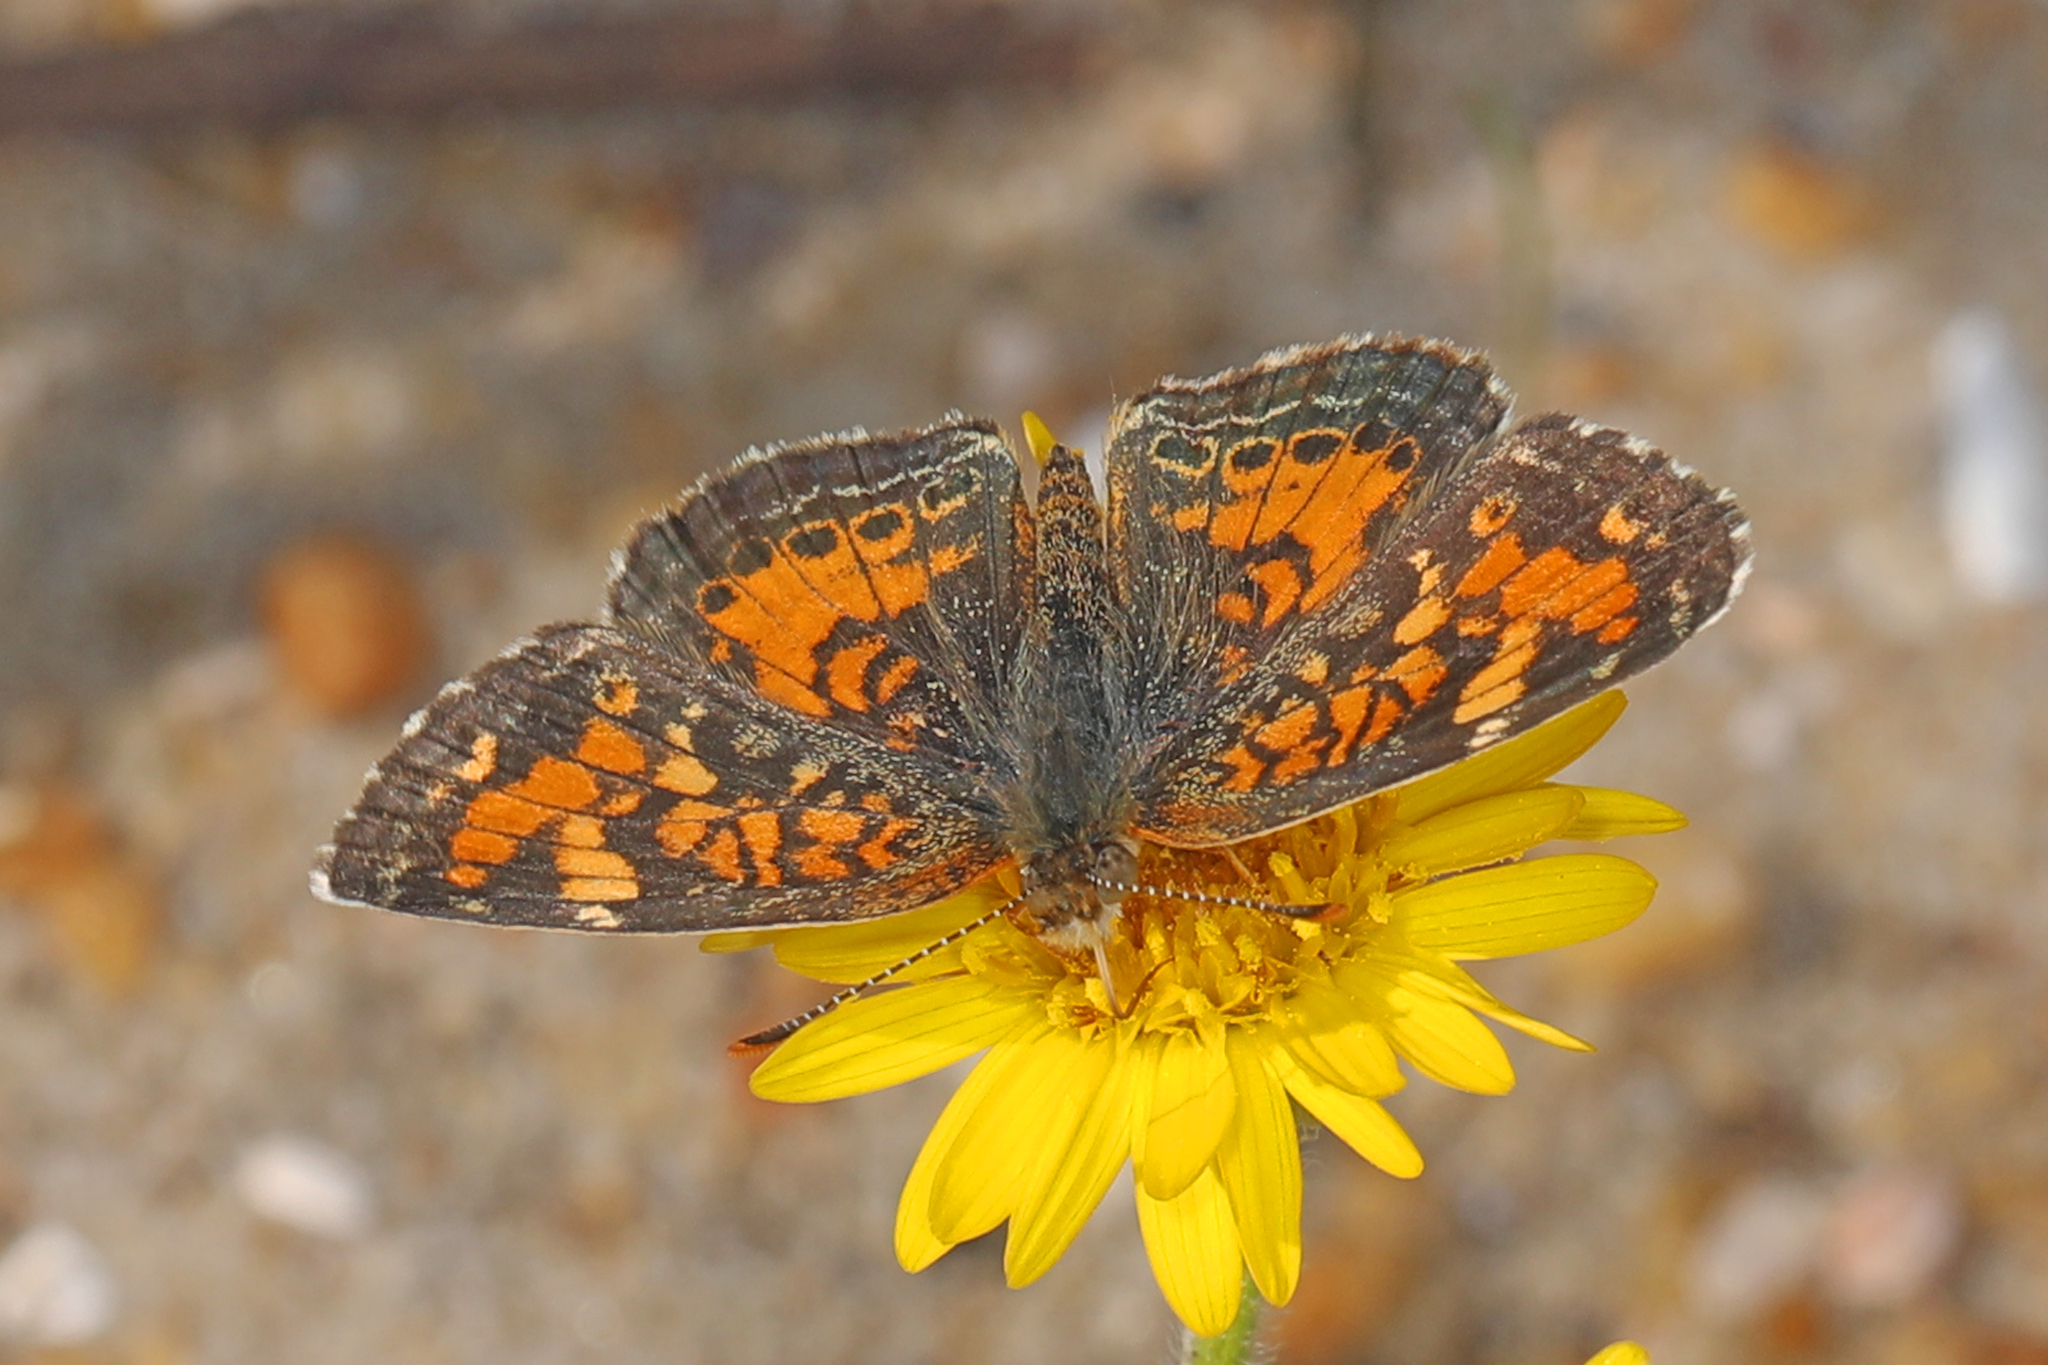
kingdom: Animalia
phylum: Arthropoda
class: Insecta
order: Lepidoptera
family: Nymphalidae
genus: Phyciodes
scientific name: Phyciodes tharos
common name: Pearl crescent
